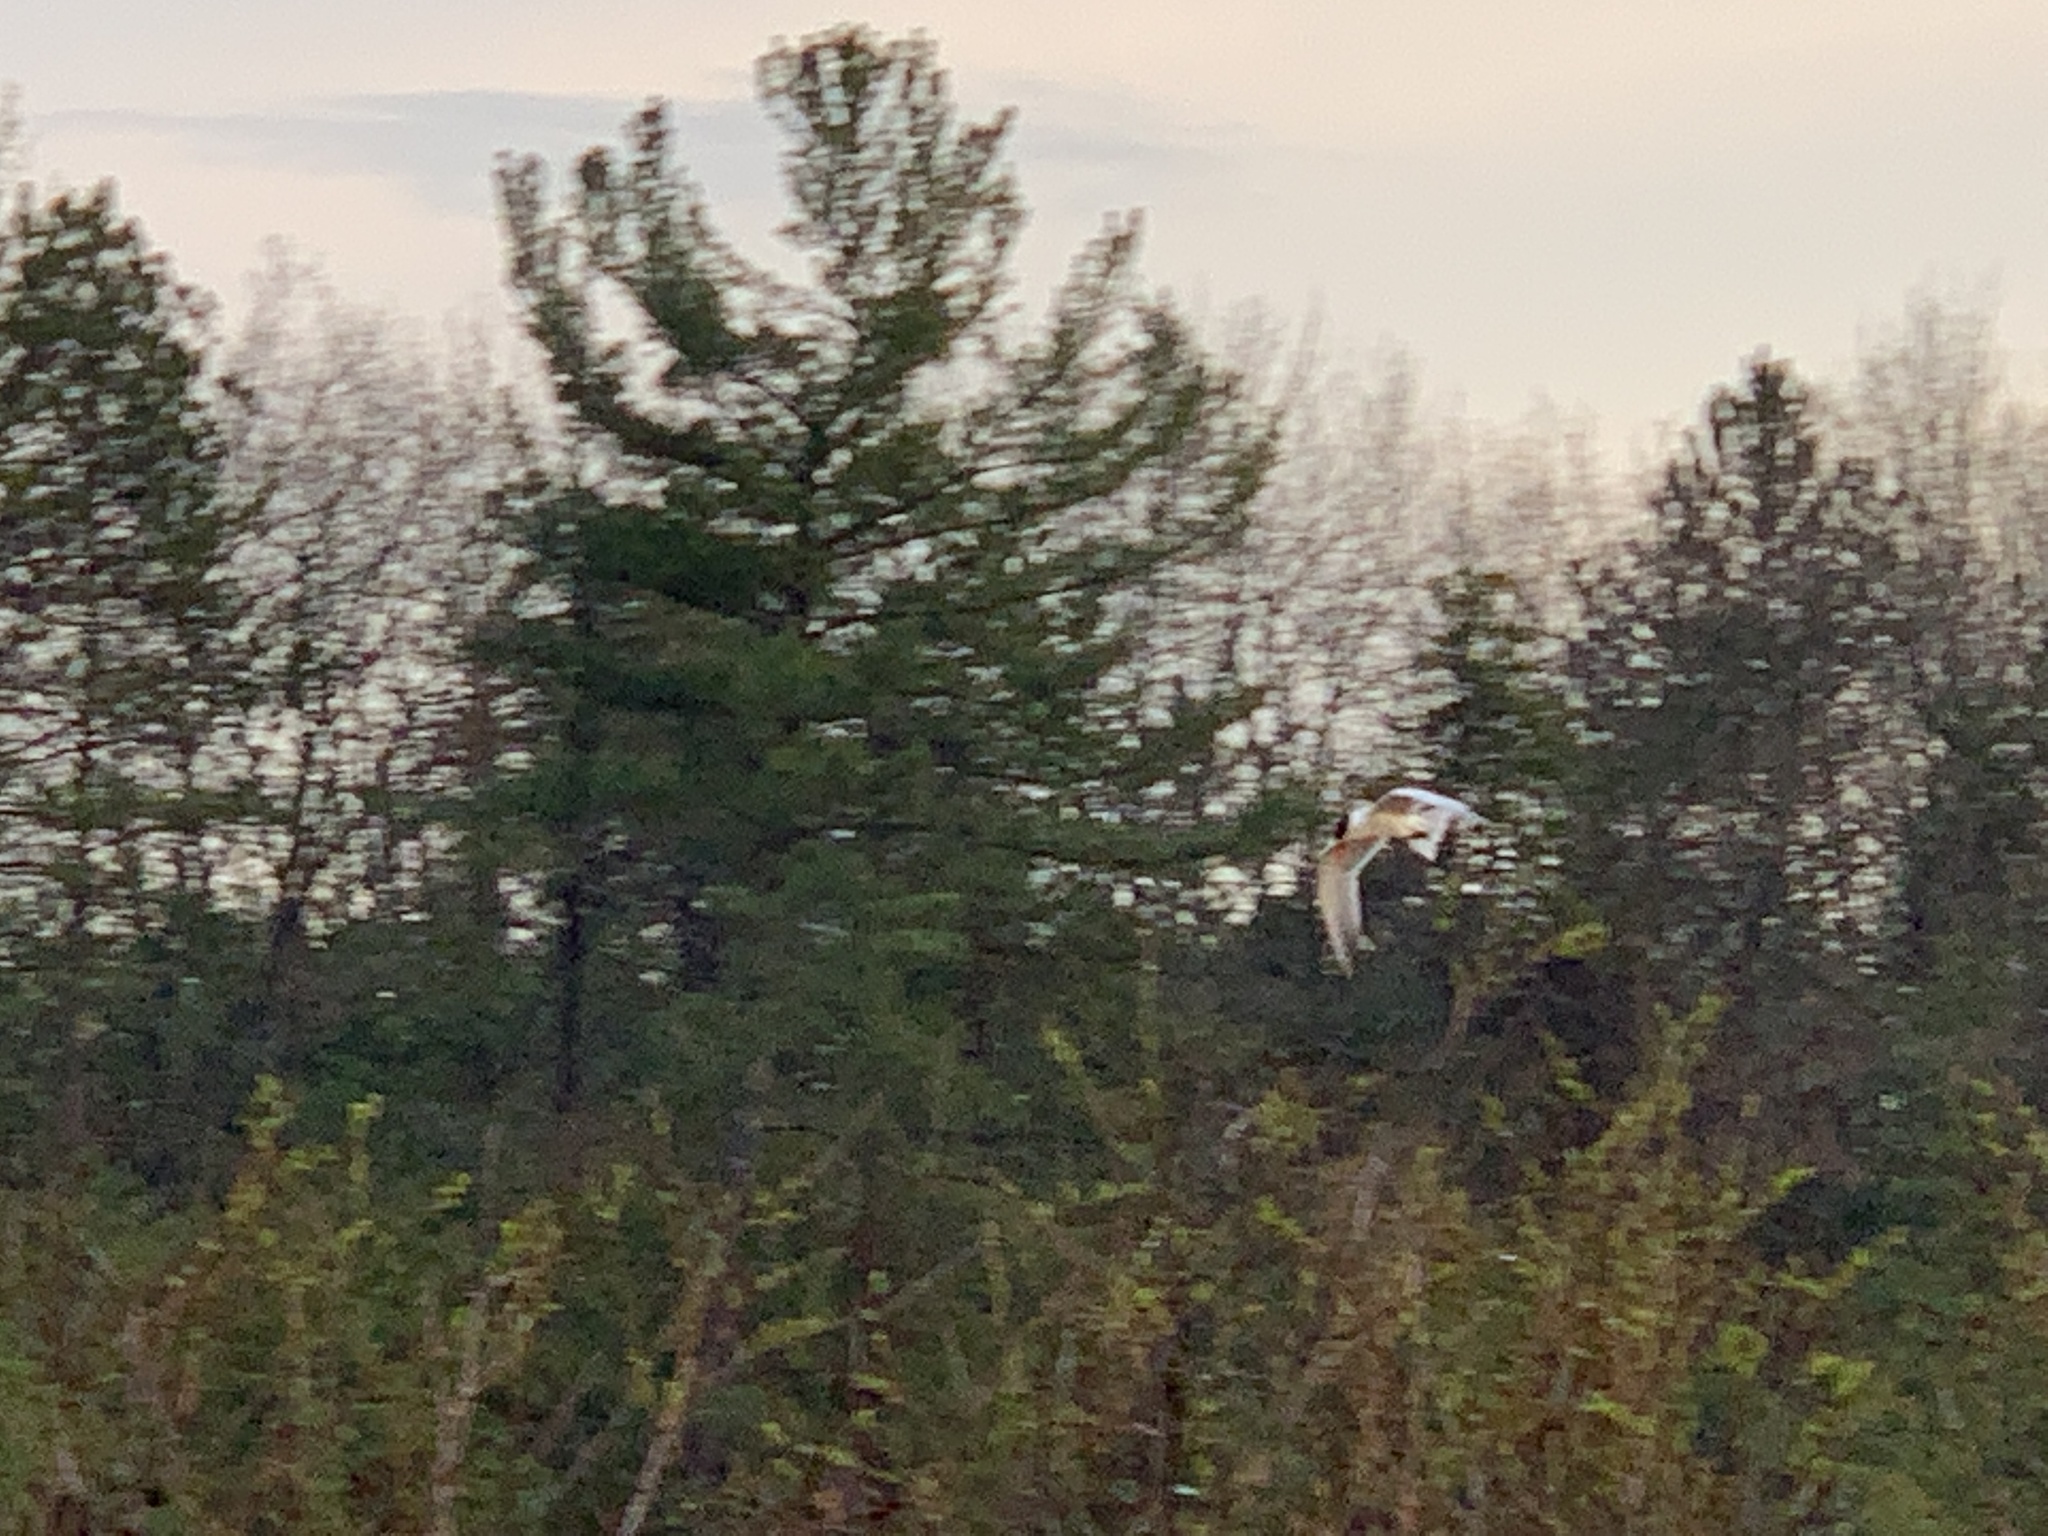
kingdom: Animalia
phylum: Chordata
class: Aves
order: Charadriiformes
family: Laridae
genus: Hydroprogne
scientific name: Hydroprogne caspia
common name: Caspian tern
